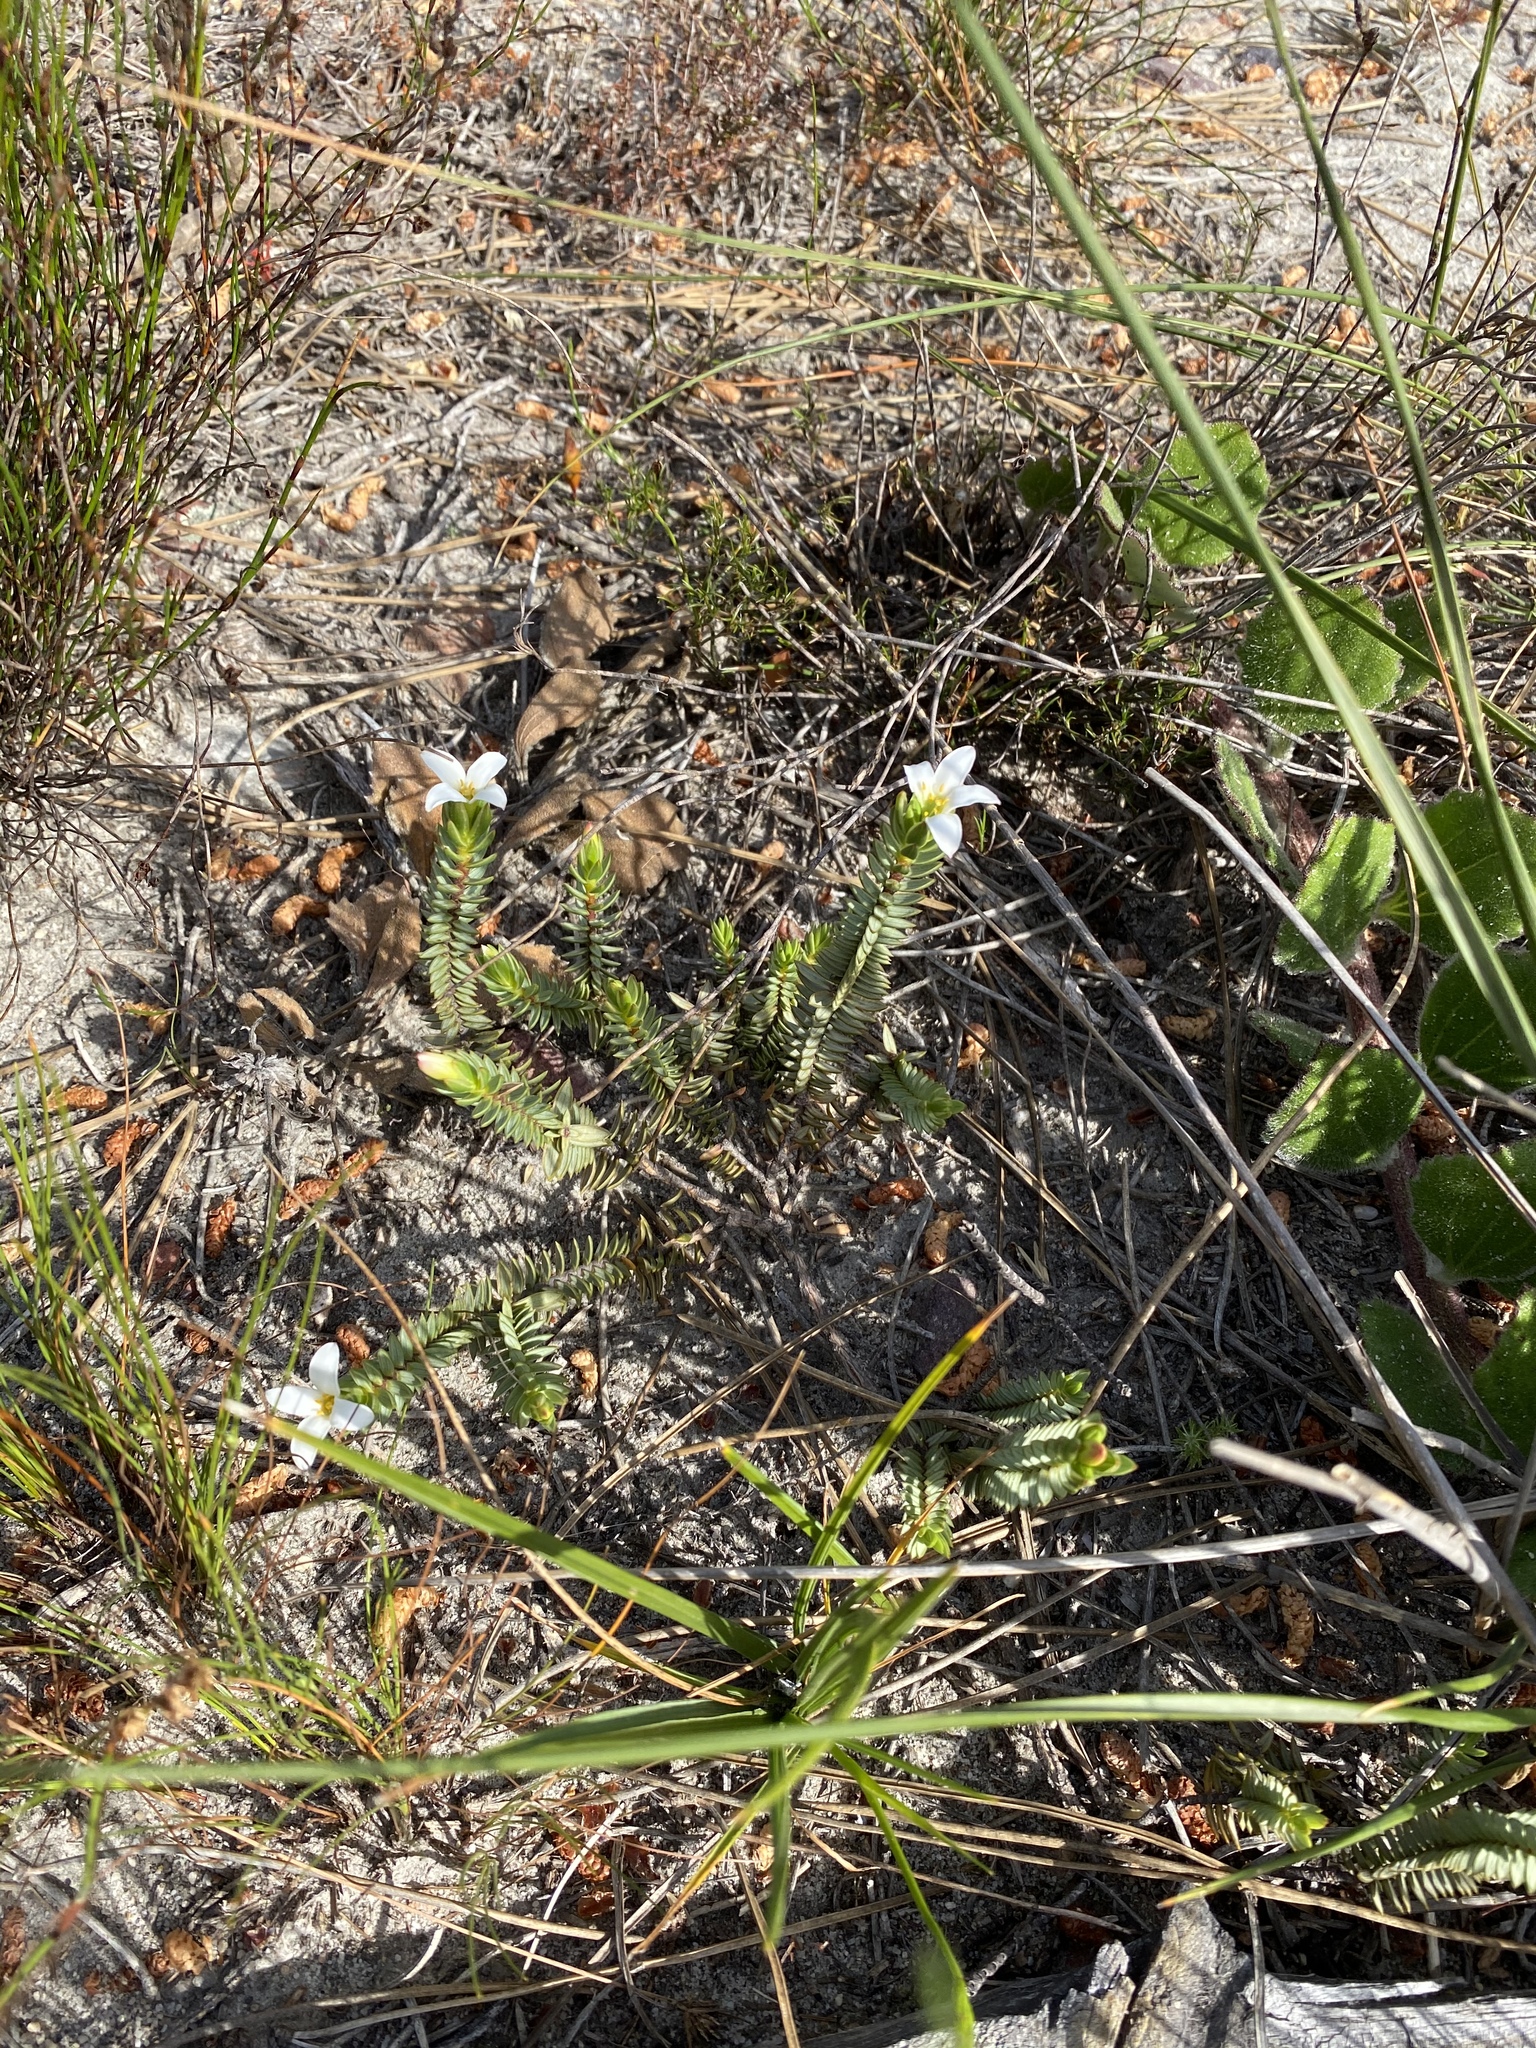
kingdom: Plantae
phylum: Tracheophyta
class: Magnoliopsida
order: Malvales
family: Thymelaeaceae
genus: Lachnaea
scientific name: Lachnaea grandiflora
